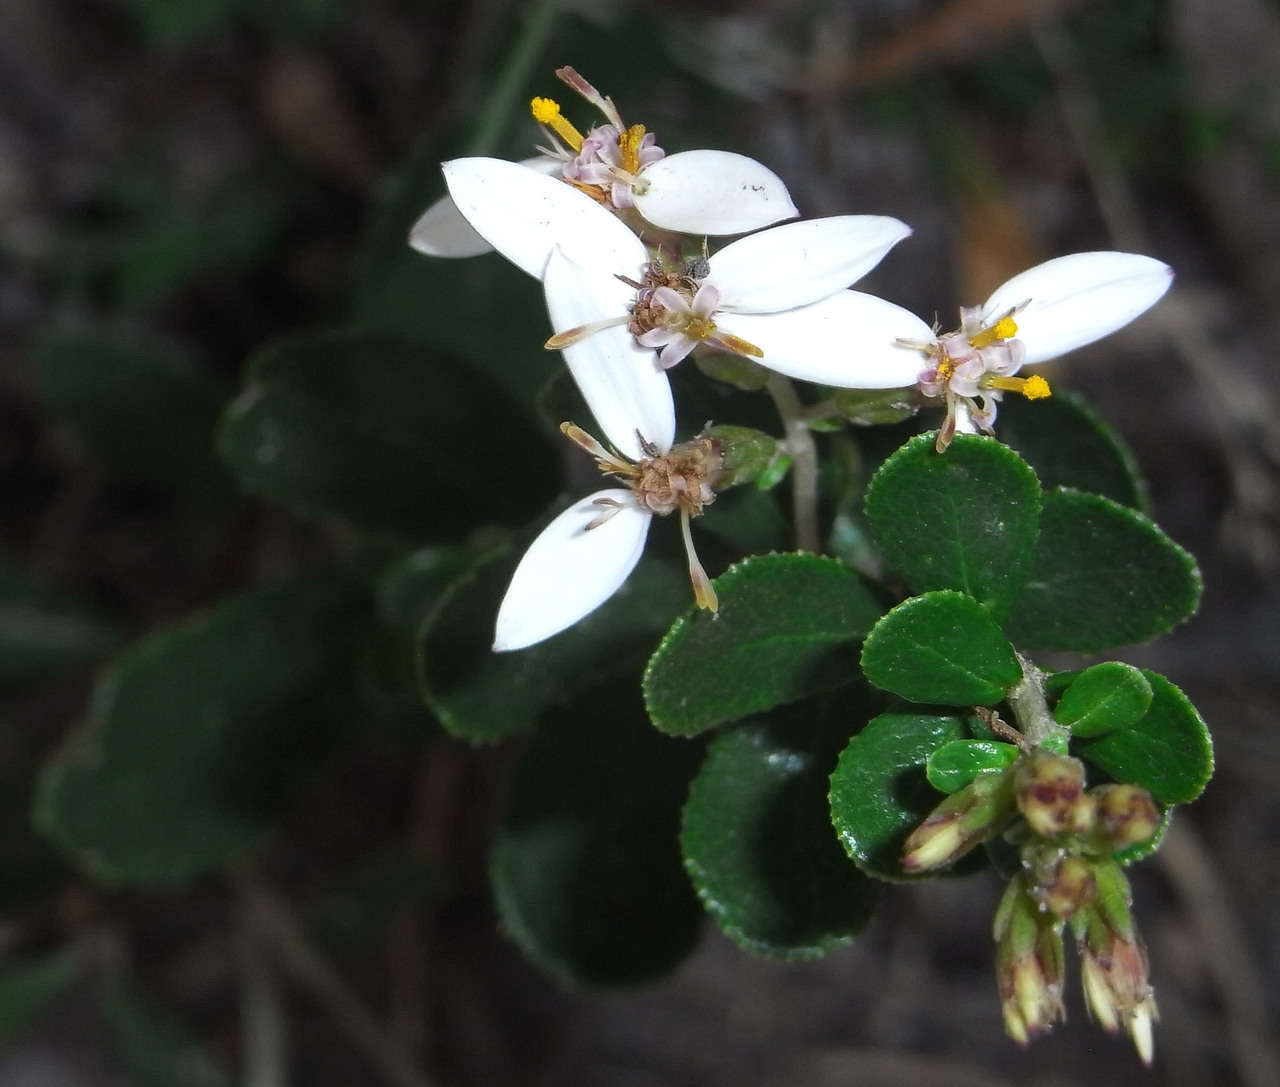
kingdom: Plantae
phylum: Tracheophyta
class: Magnoliopsida
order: Asterales
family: Asteraceae
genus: Olearia
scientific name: Olearia myrsinoides
